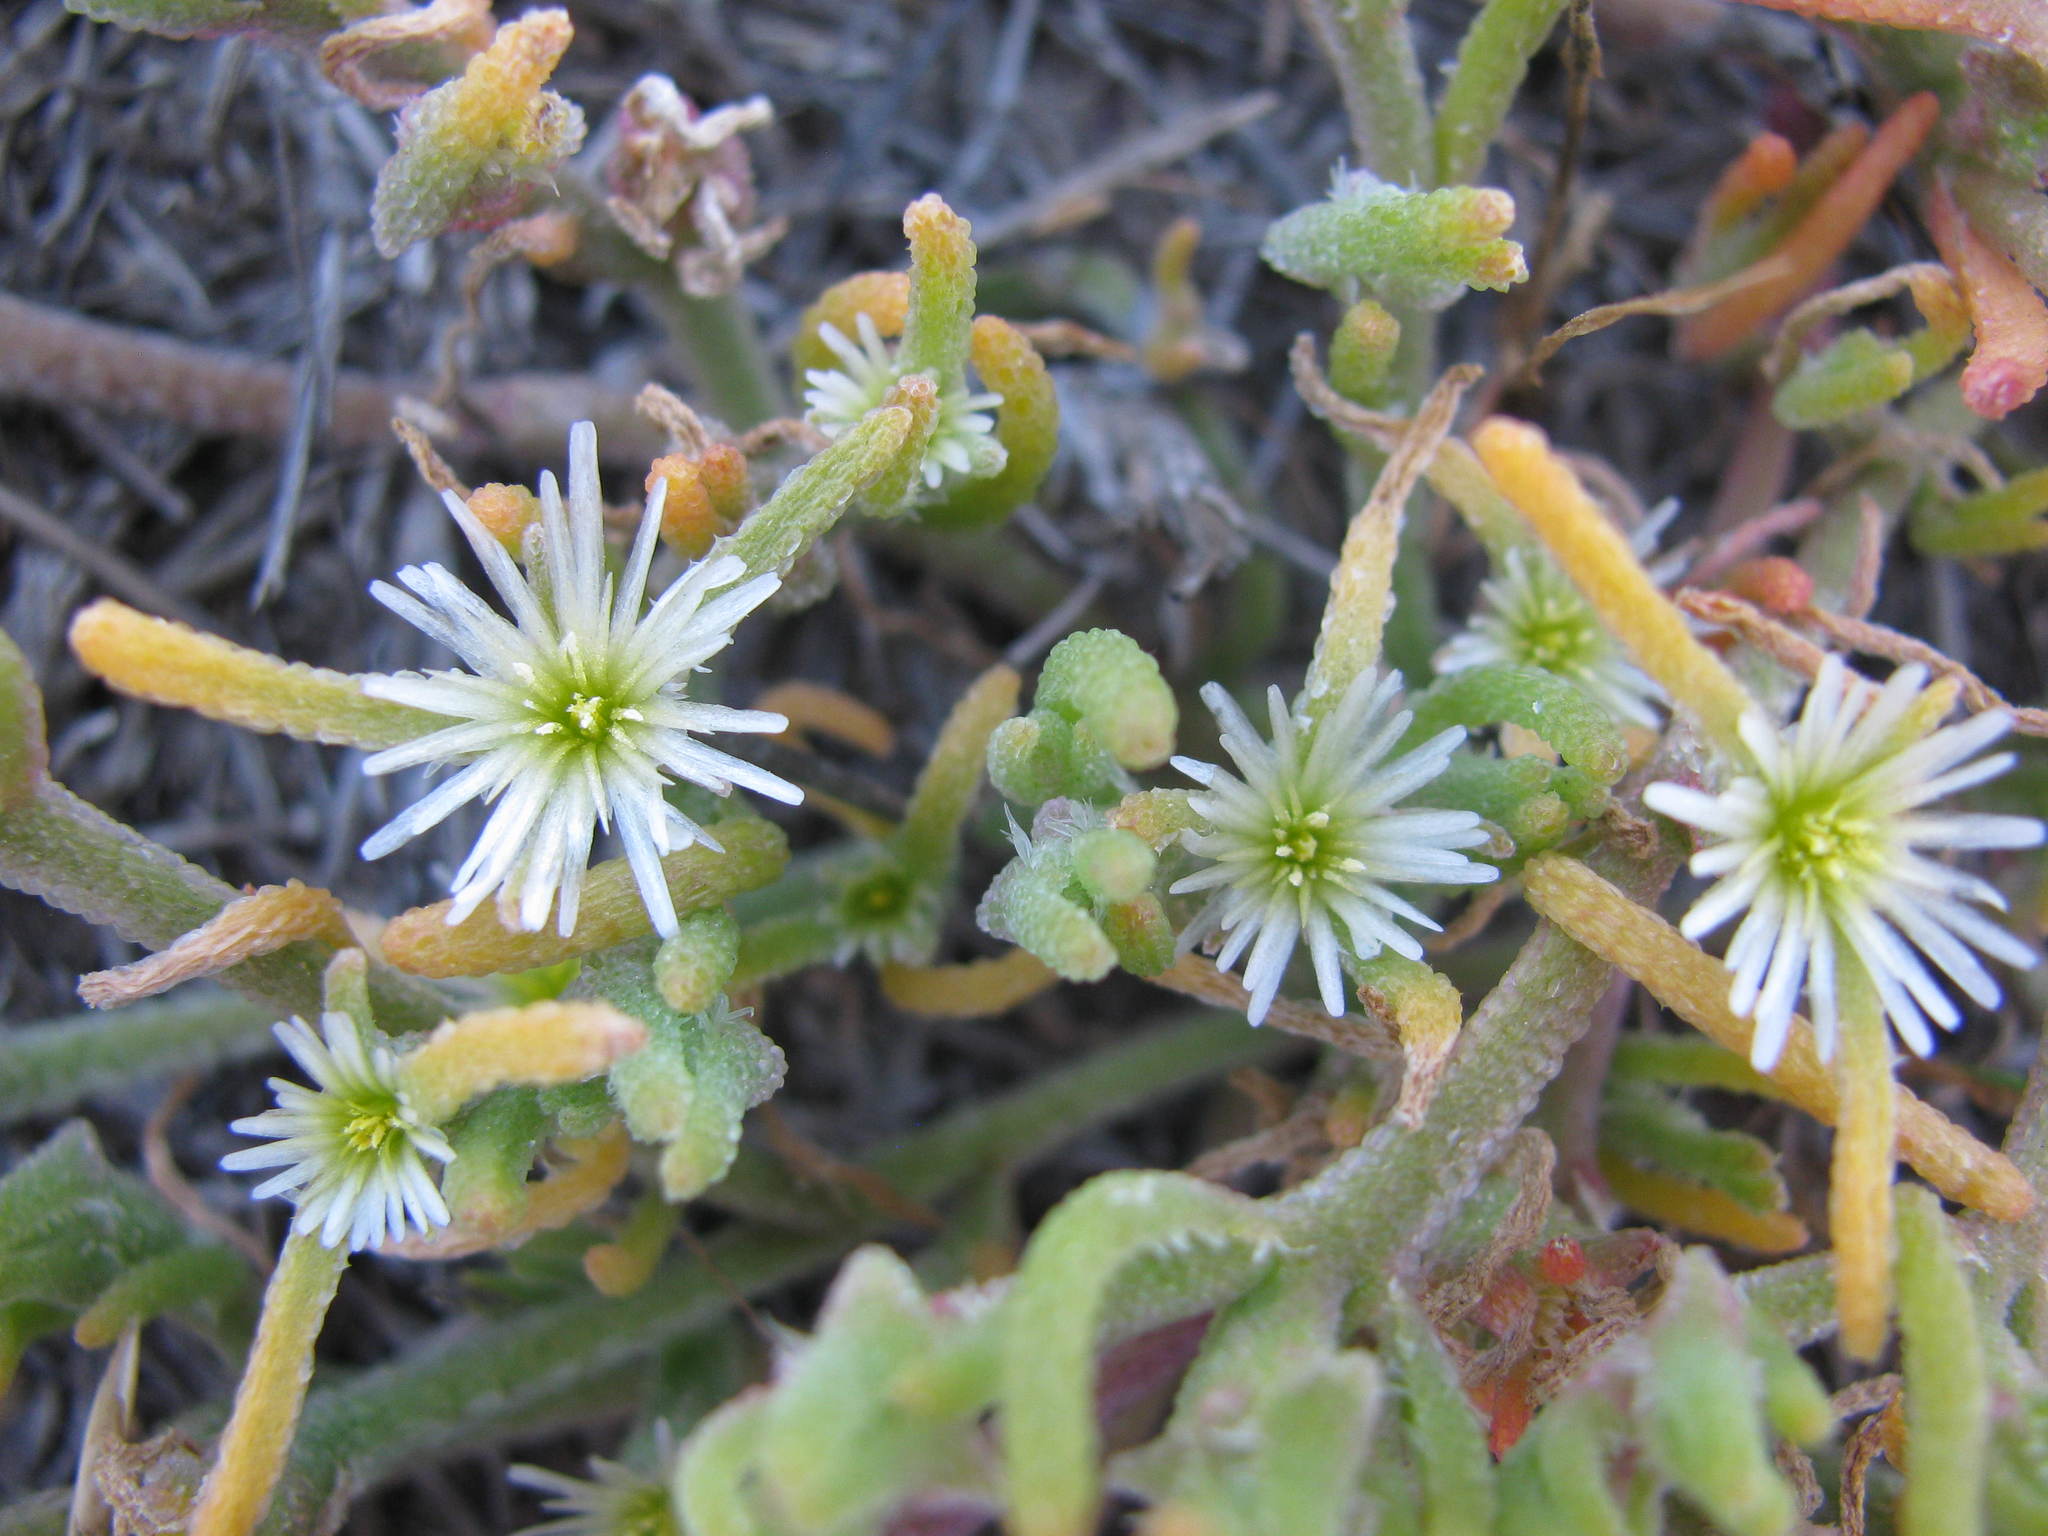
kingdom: Plantae
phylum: Tracheophyta
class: Magnoliopsida
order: Caryophyllales
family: Aizoaceae
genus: Mesembryanthemum
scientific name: Mesembryanthemum nodiflorum
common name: Slenderleaf iceplant
